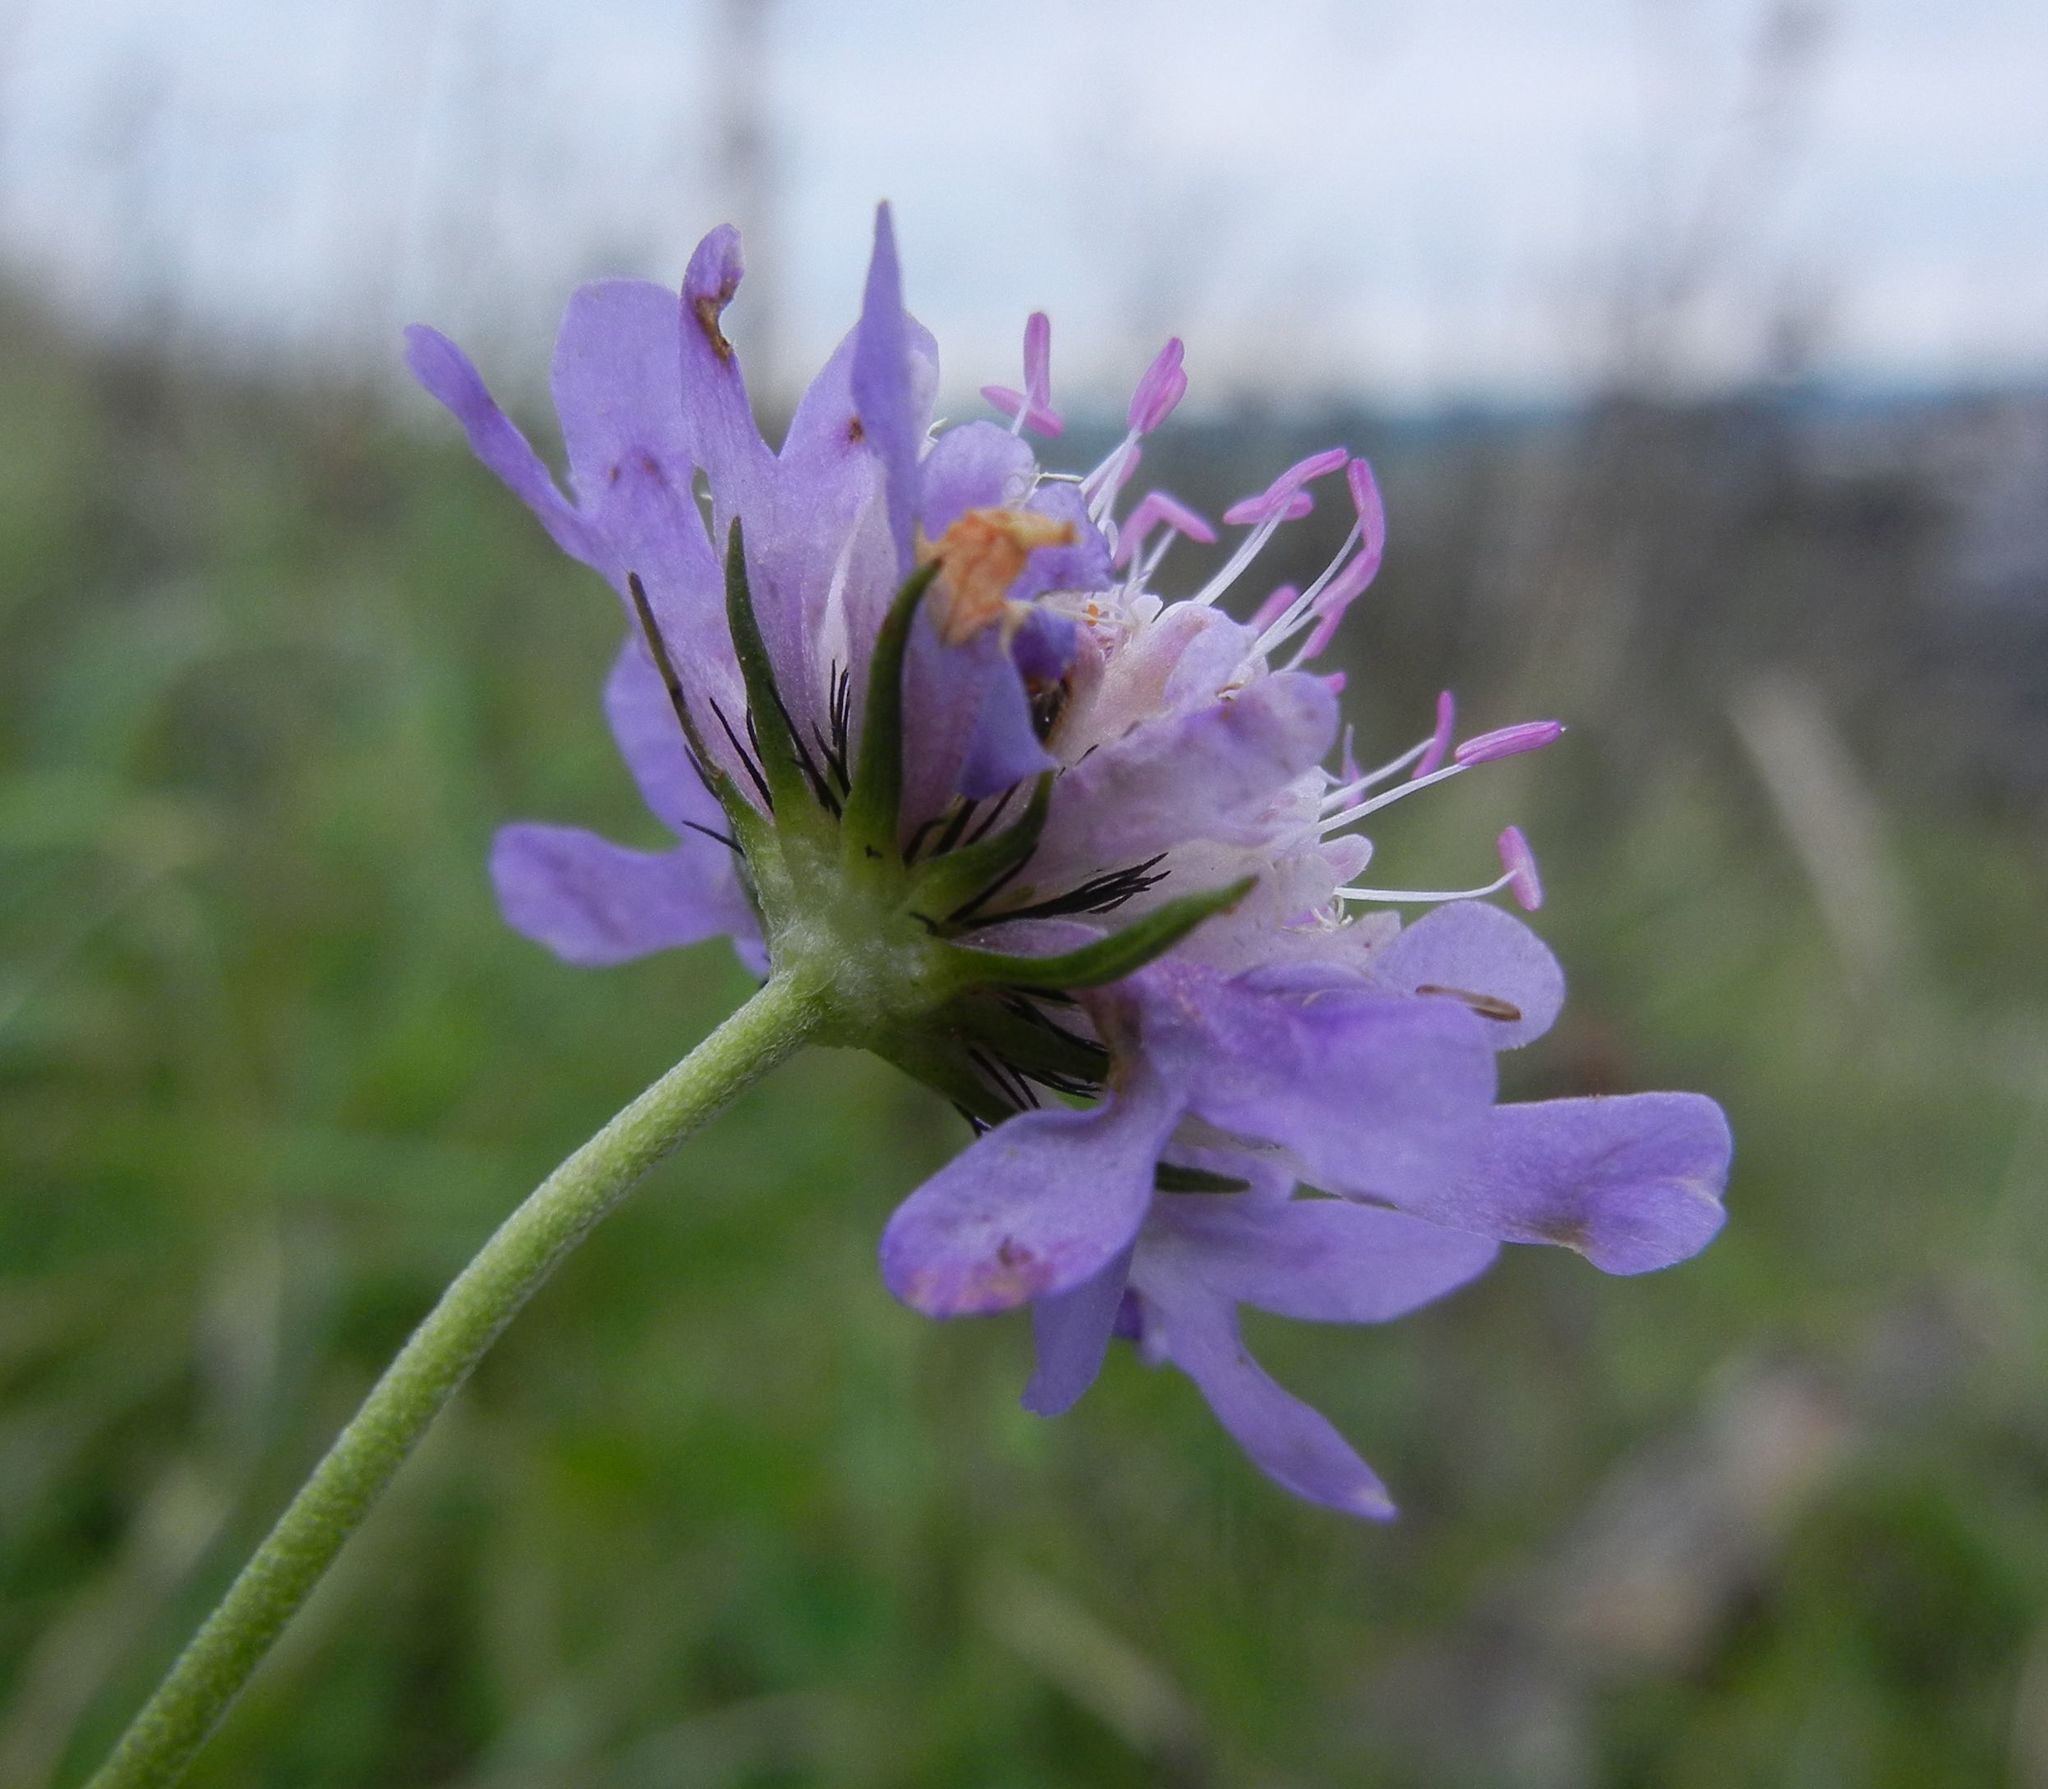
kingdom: Plantae
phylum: Tracheophyta
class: Magnoliopsida
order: Dipsacales
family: Caprifoliaceae
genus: Scabiosa
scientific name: Scabiosa columbaria
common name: Small scabious
